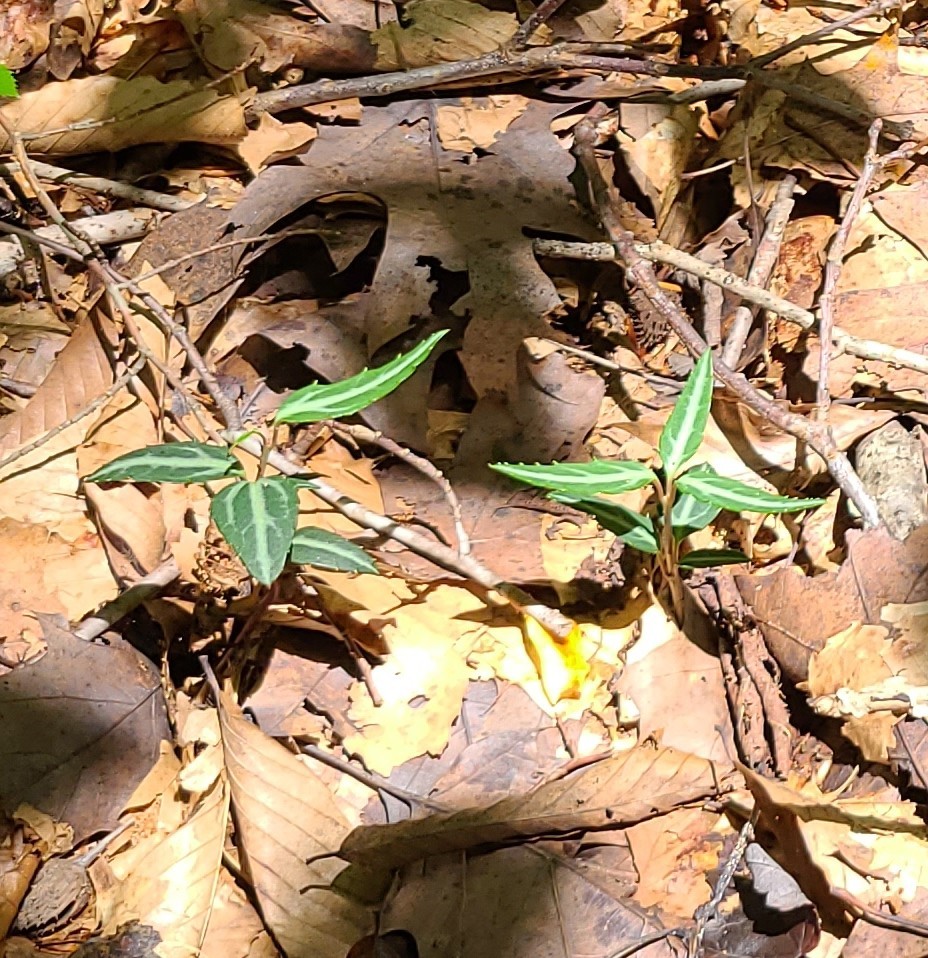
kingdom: Plantae
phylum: Tracheophyta
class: Magnoliopsida
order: Ericales
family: Ericaceae
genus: Chimaphila
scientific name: Chimaphila maculata
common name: Spotted pipsissewa
